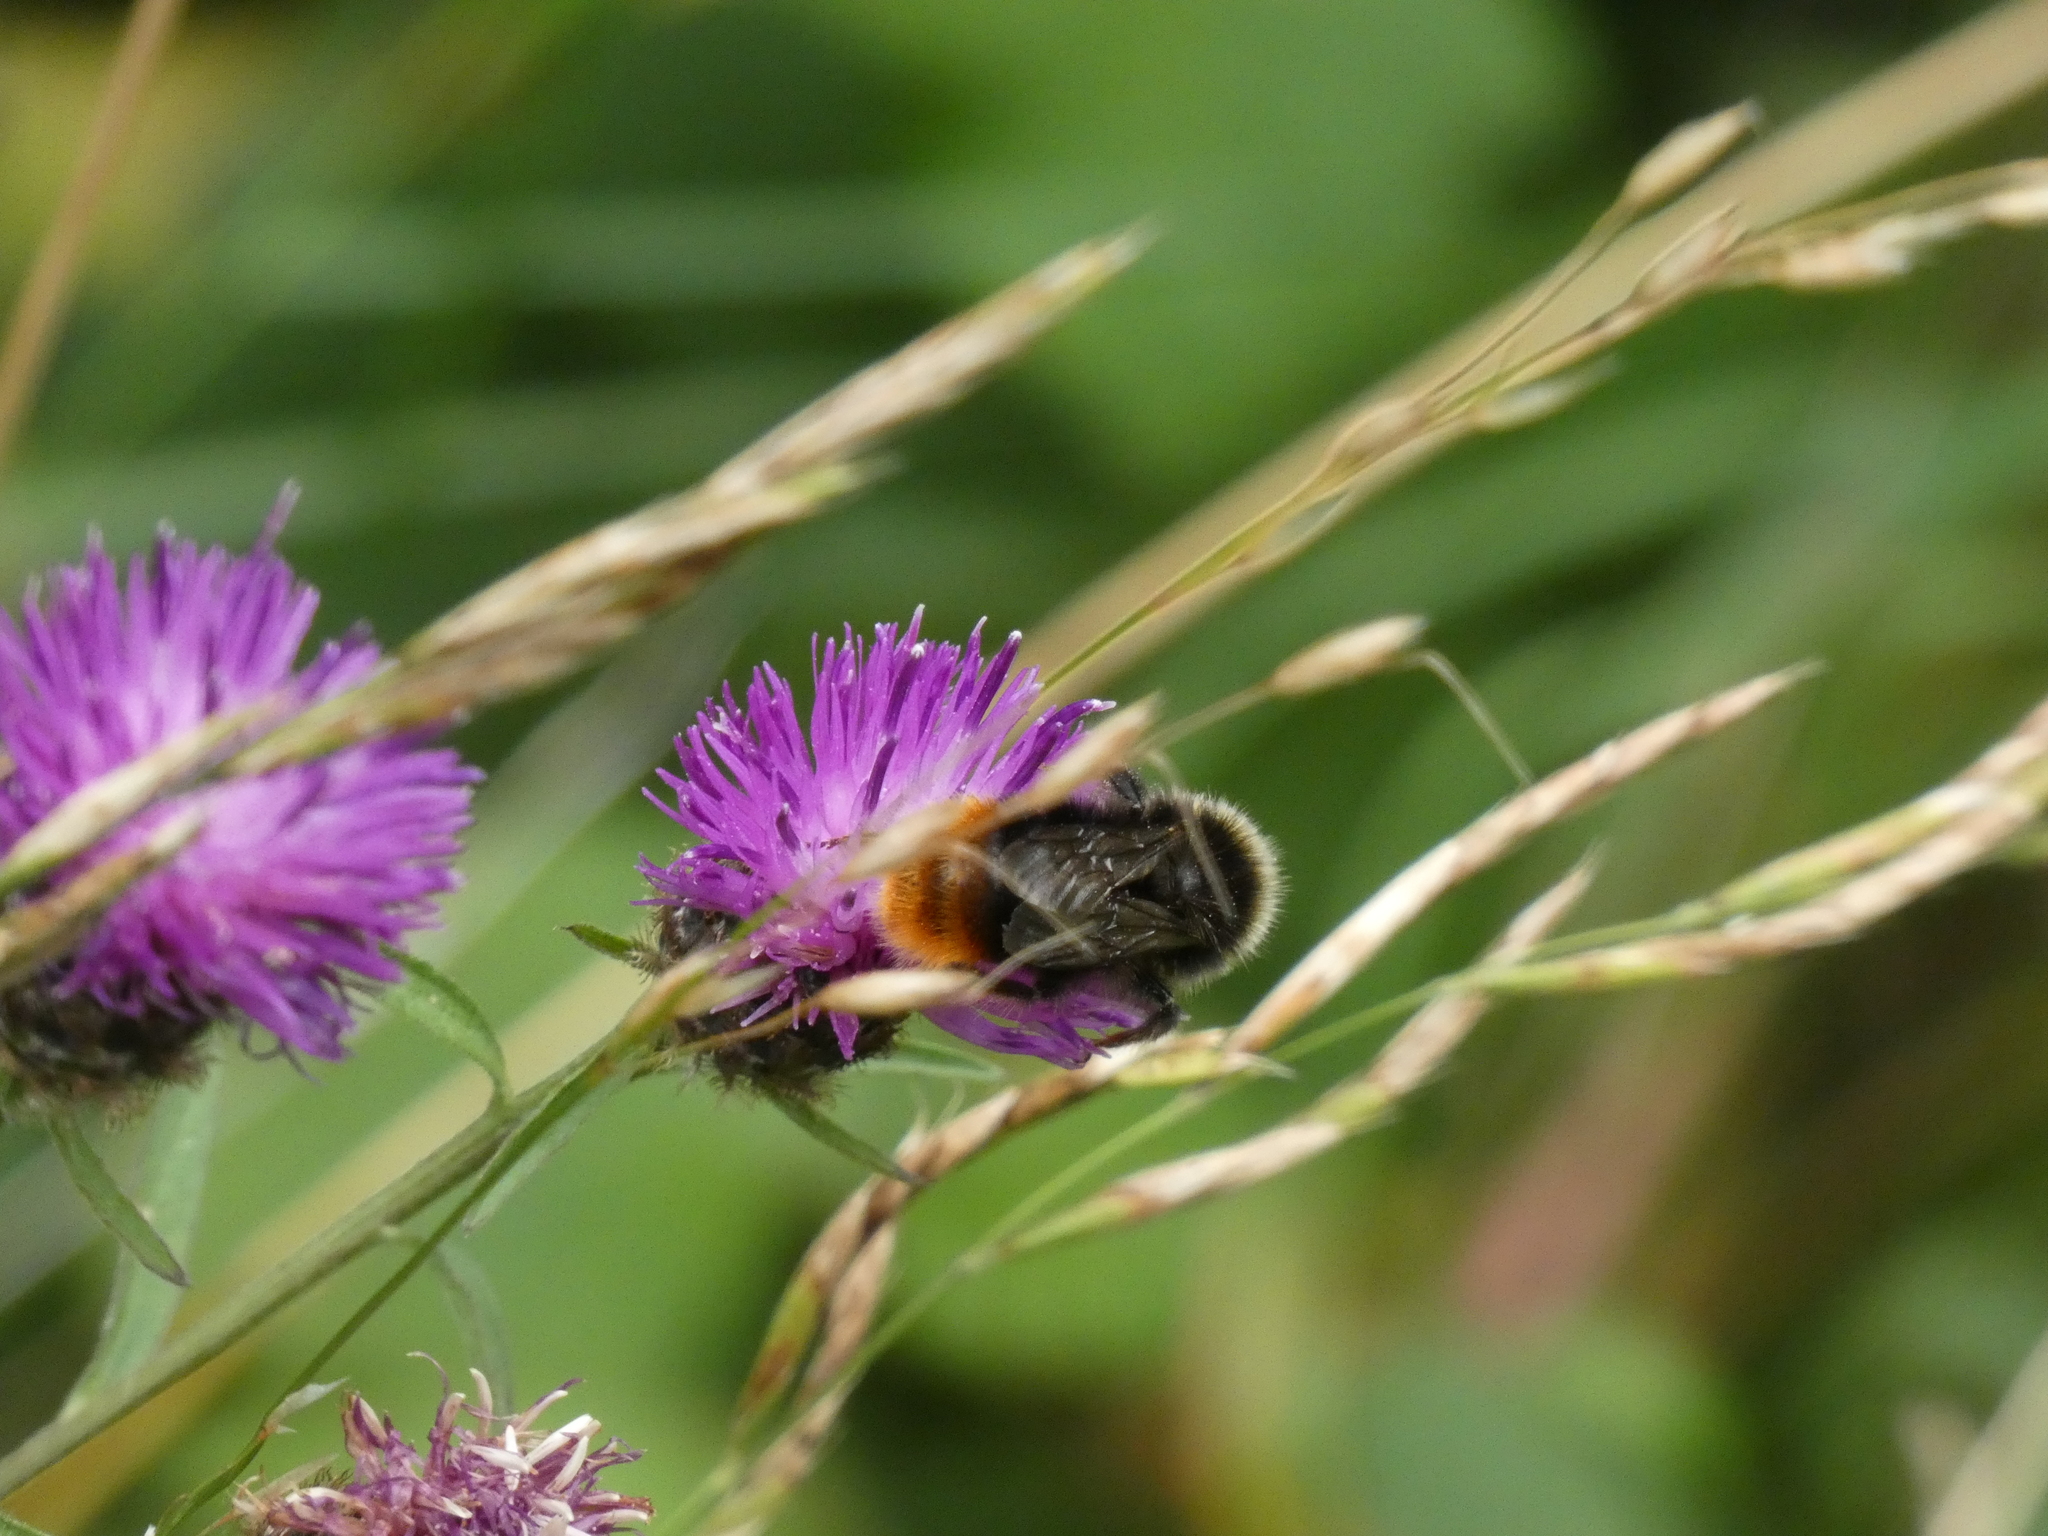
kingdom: Animalia
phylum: Arthropoda
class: Insecta
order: Hymenoptera
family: Apidae
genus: Bombus
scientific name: Bombus lapidarius
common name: Large red-tailed humble-bee
